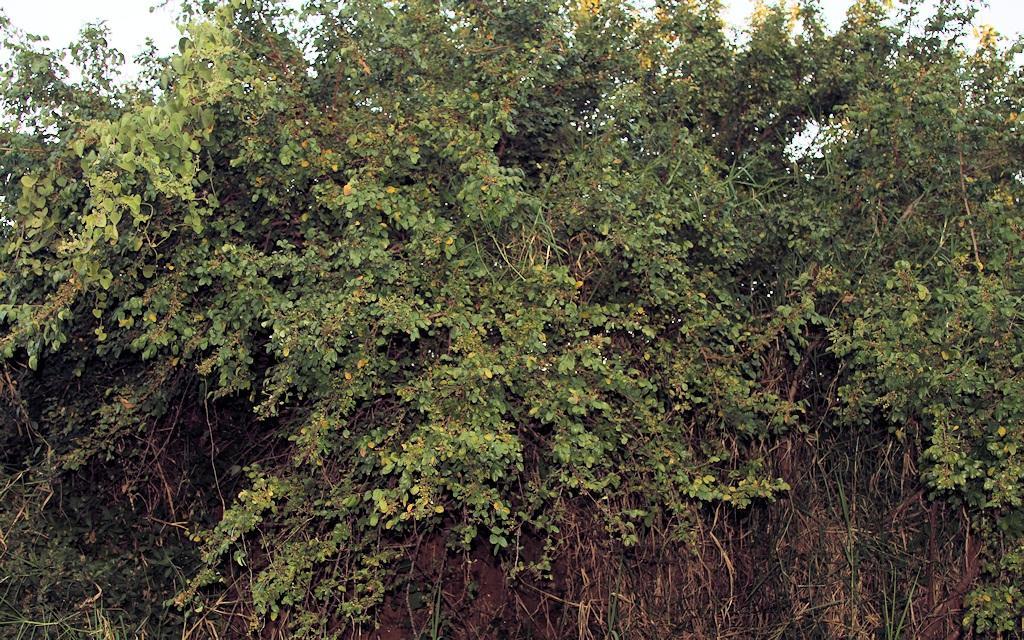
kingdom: Plantae
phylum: Tracheophyta
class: Magnoliopsida
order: Malpighiales
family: Phyllanthaceae
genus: Phyllanthus
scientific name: Phyllanthus reticulatus
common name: Potato bush
